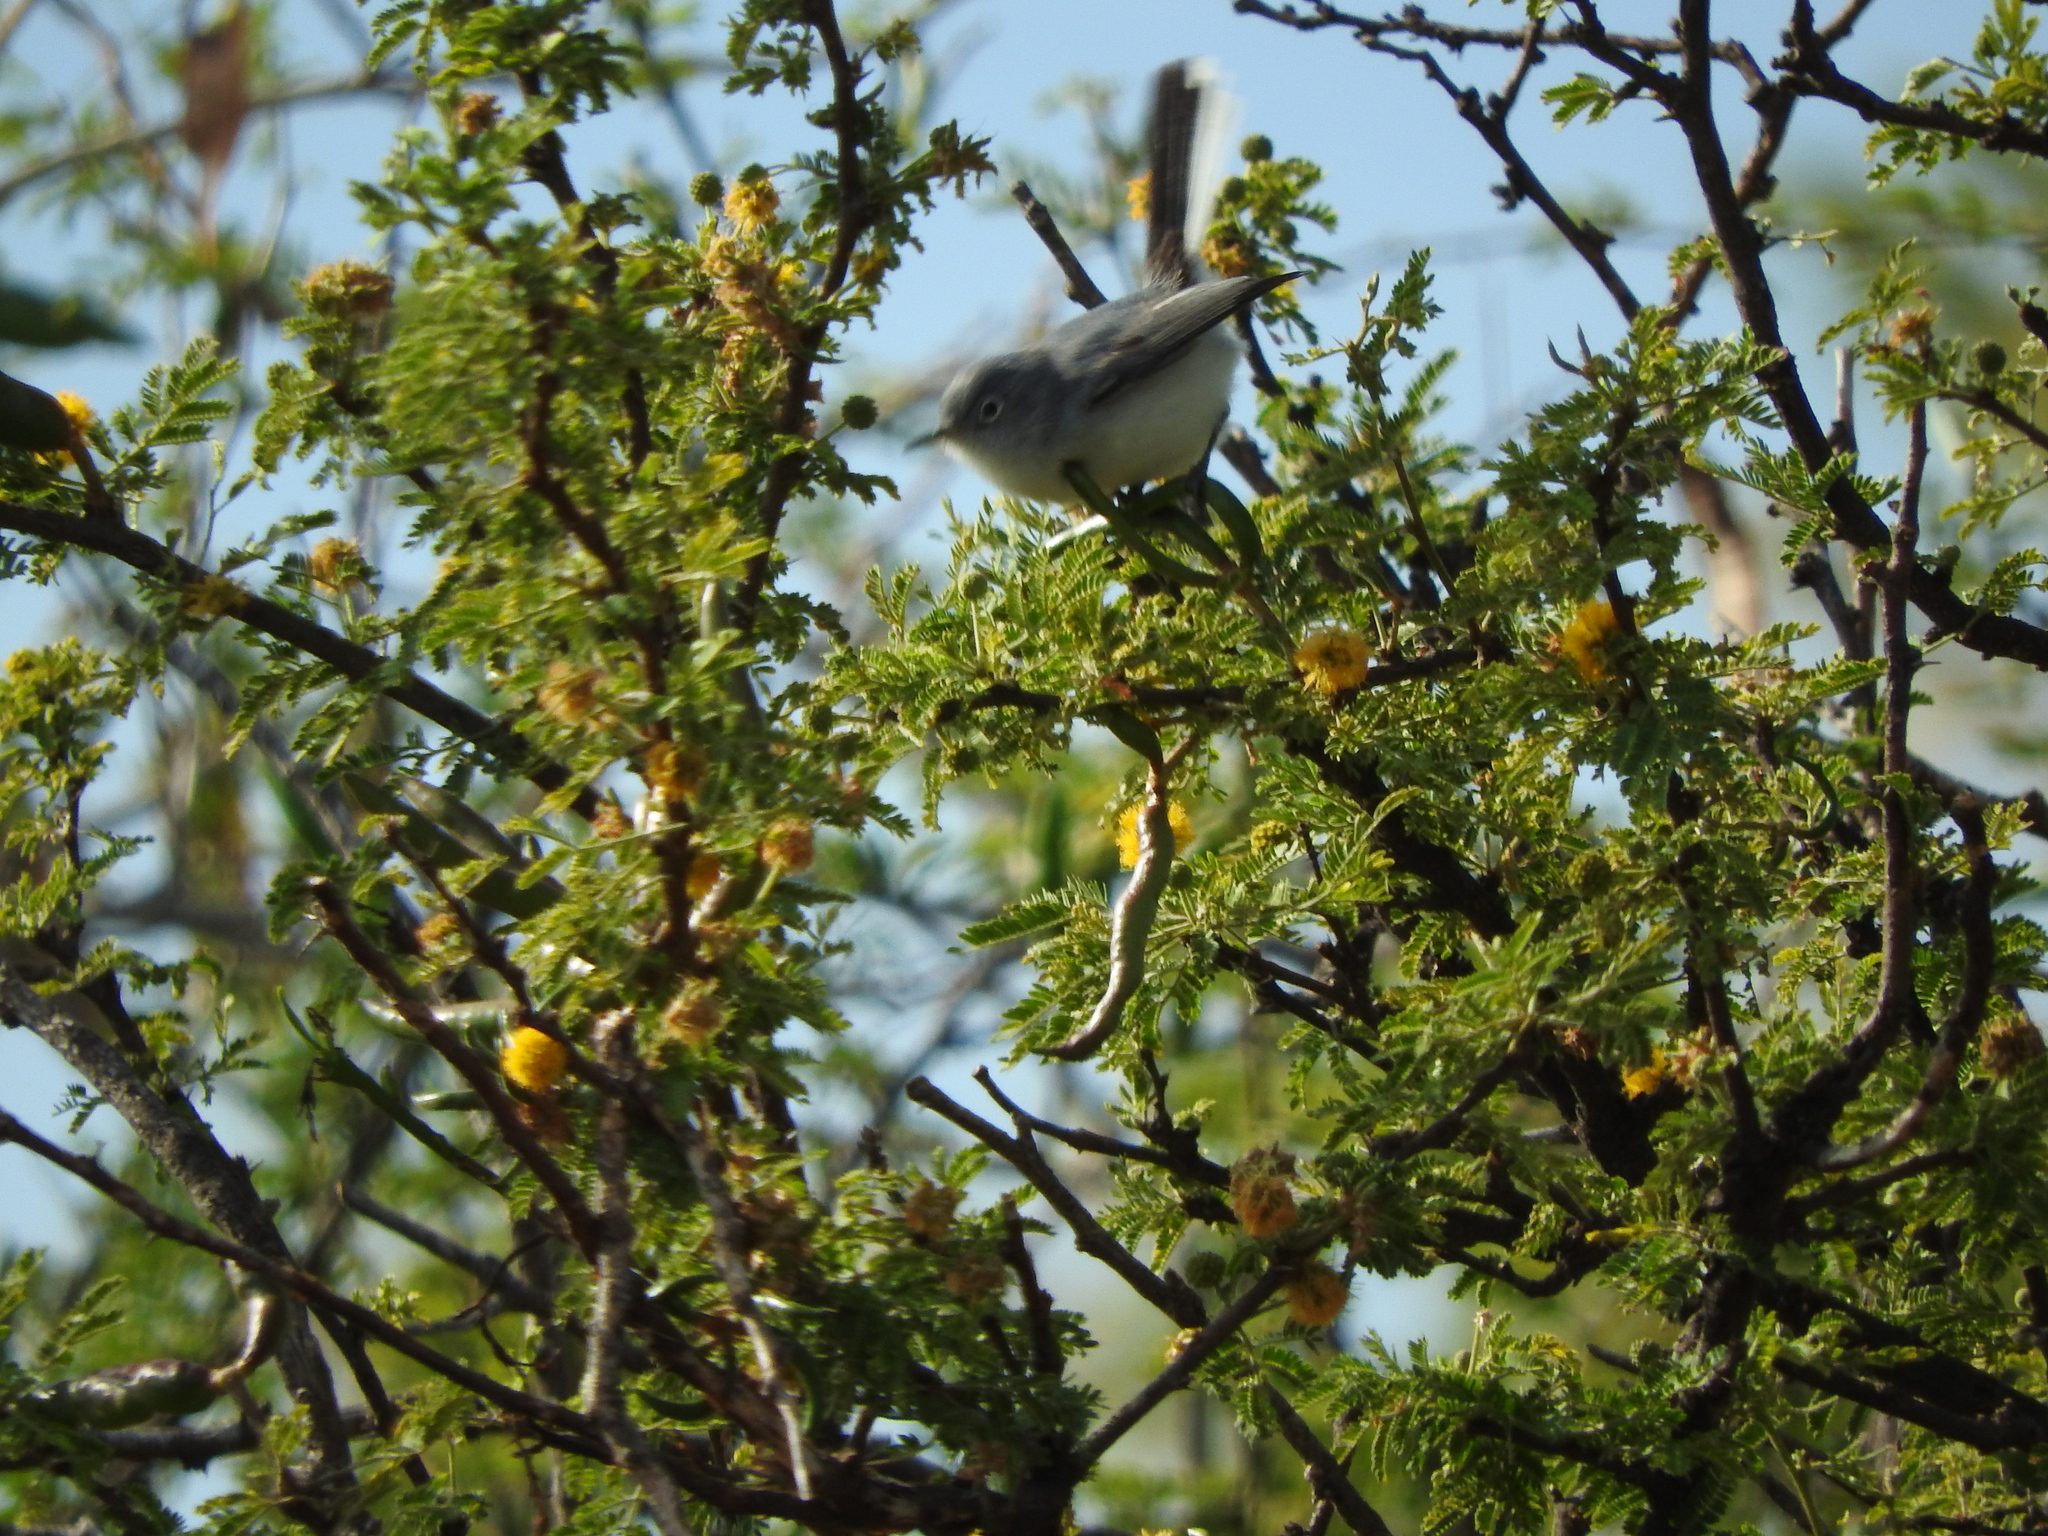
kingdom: Animalia
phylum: Chordata
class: Aves
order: Passeriformes
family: Polioptilidae
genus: Polioptila
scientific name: Polioptila caerulea
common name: Blue-gray gnatcatcher
